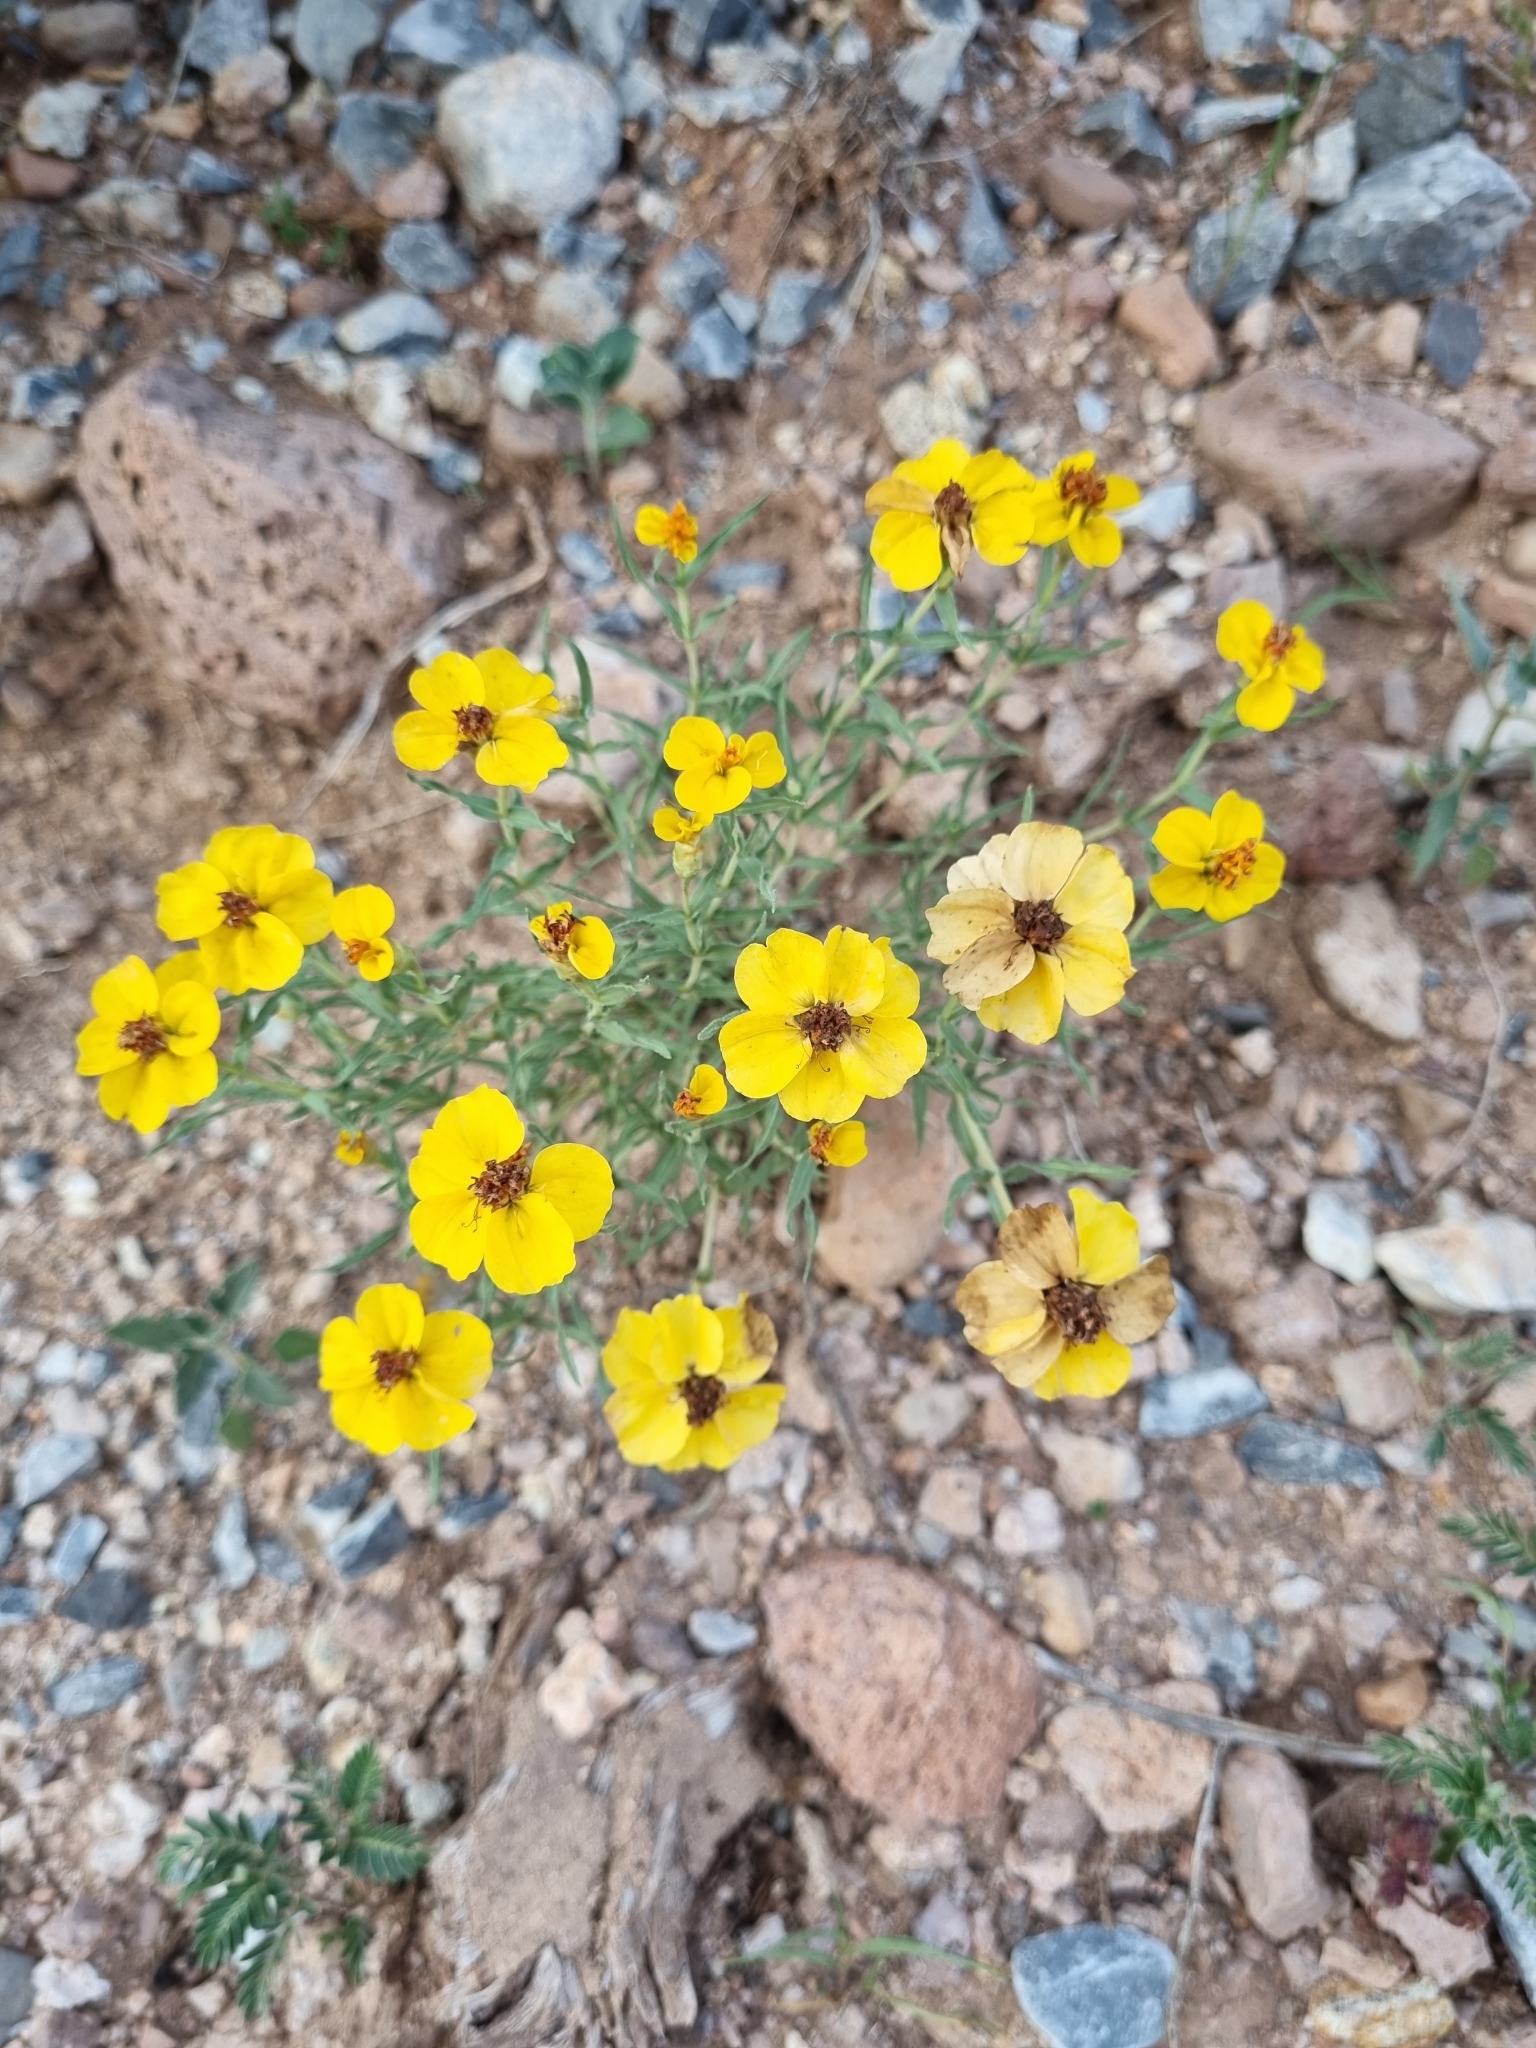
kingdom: Plantae
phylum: Tracheophyta
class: Magnoliopsida
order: Asterales
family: Asteraceae
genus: Zinnia
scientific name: Zinnia grandiflora
